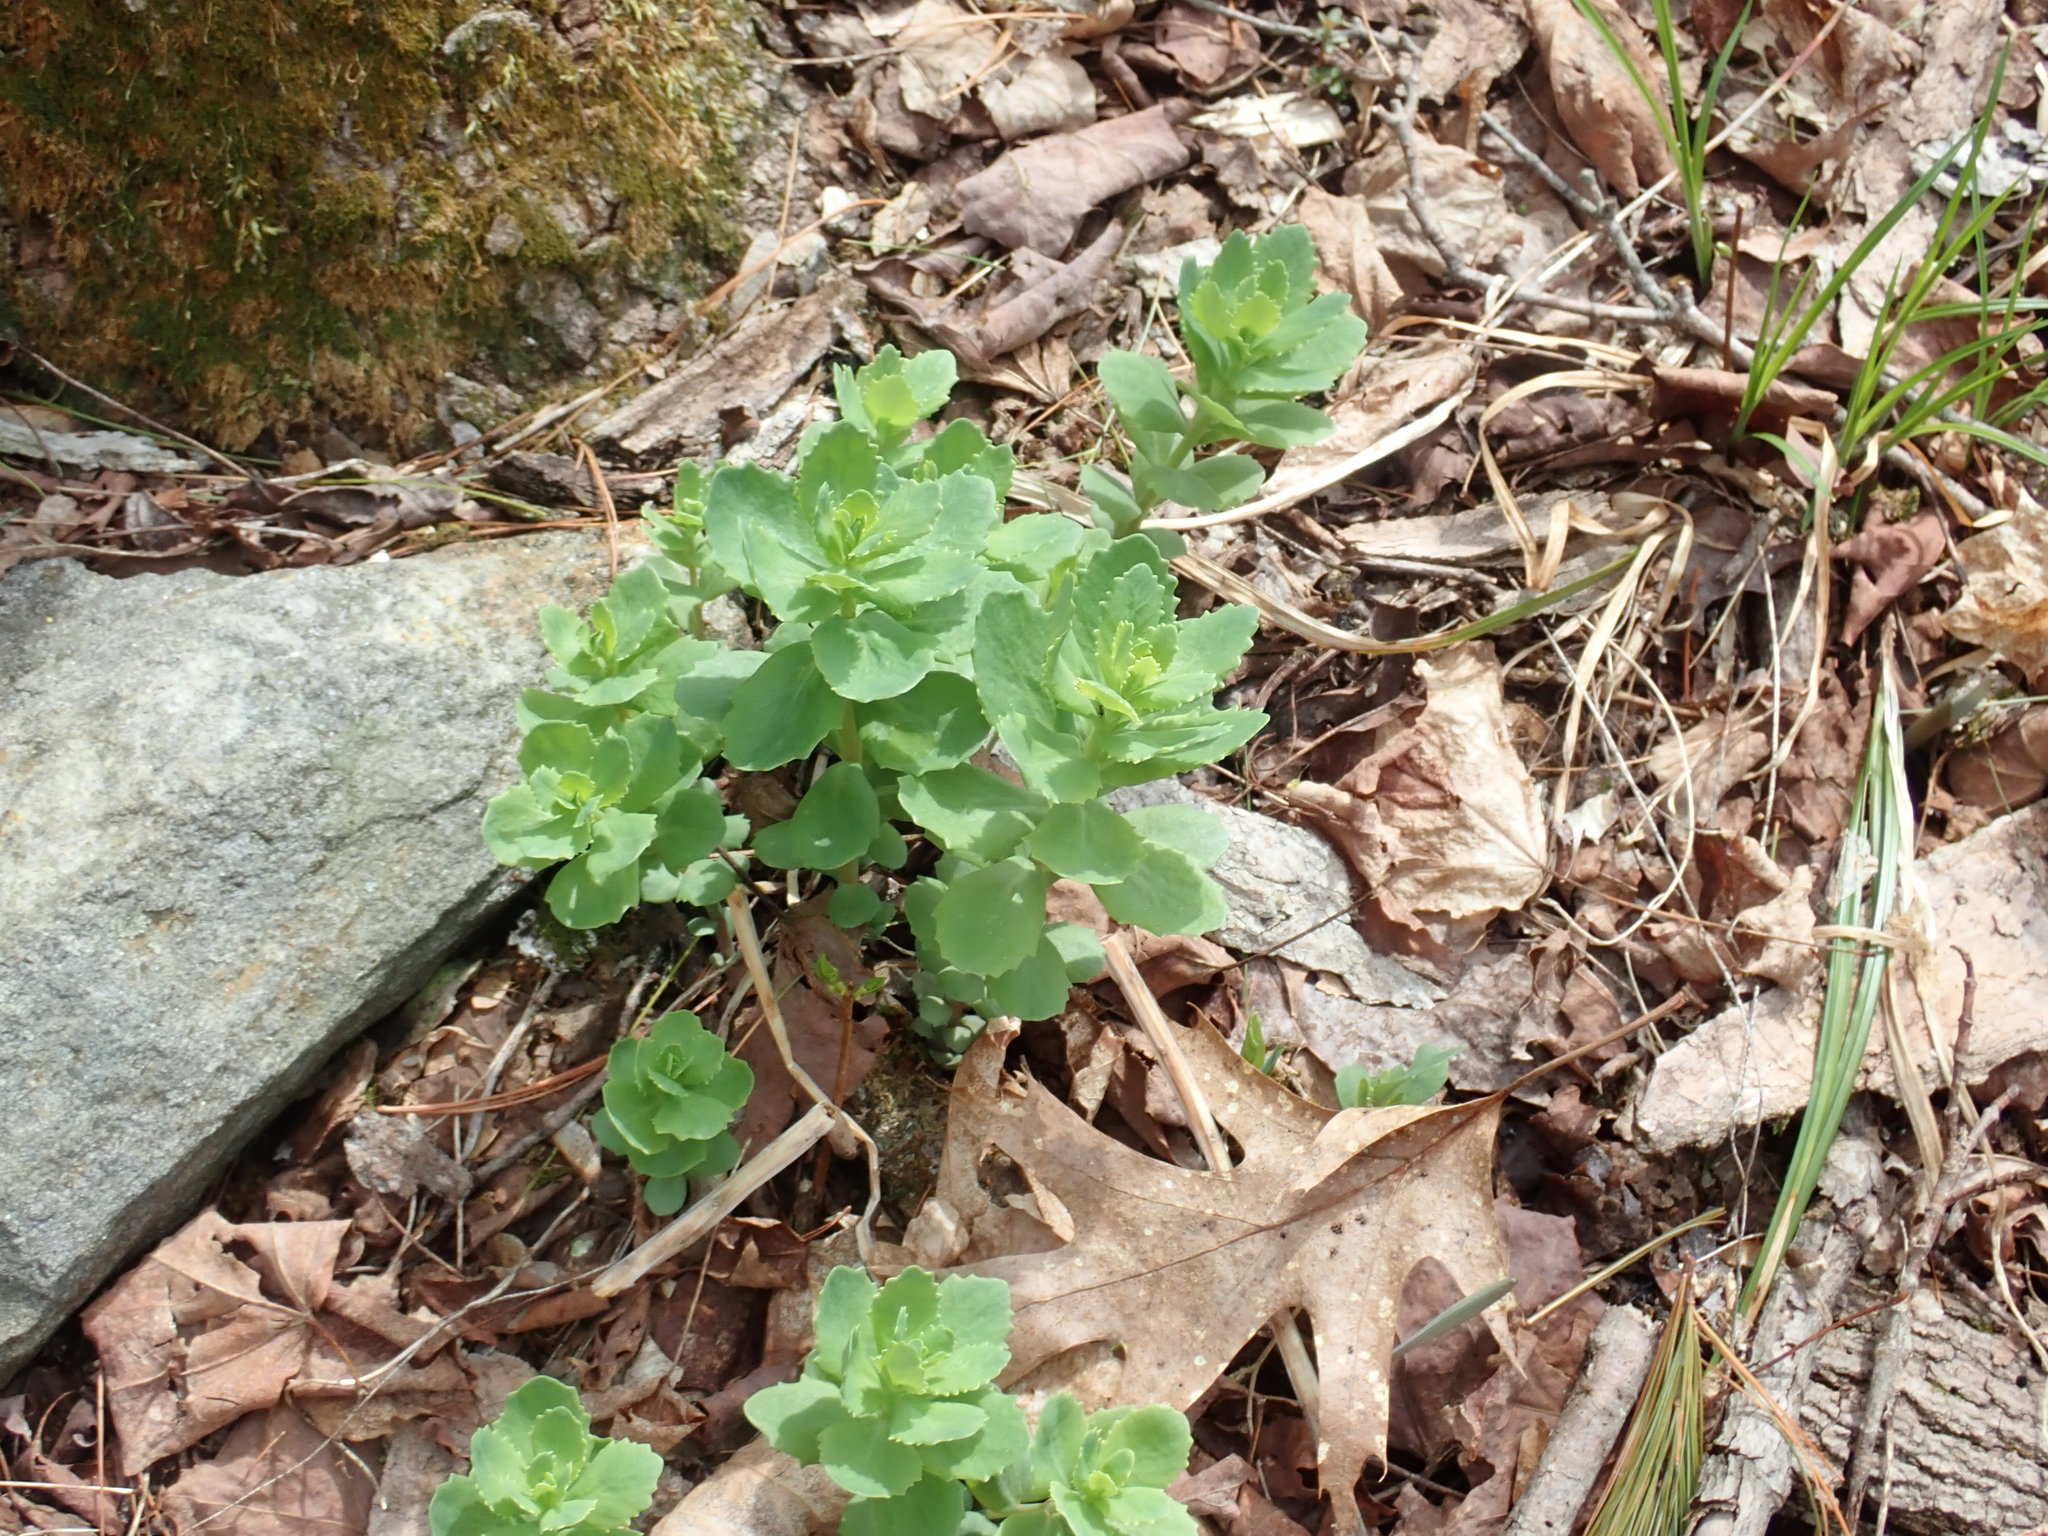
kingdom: Plantae
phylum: Tracheophyta
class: Magnoliopsida
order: Saxifragales
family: Crassulaceae
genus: Hylotelephium
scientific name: Hylotelephium telephium
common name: Live-forever
